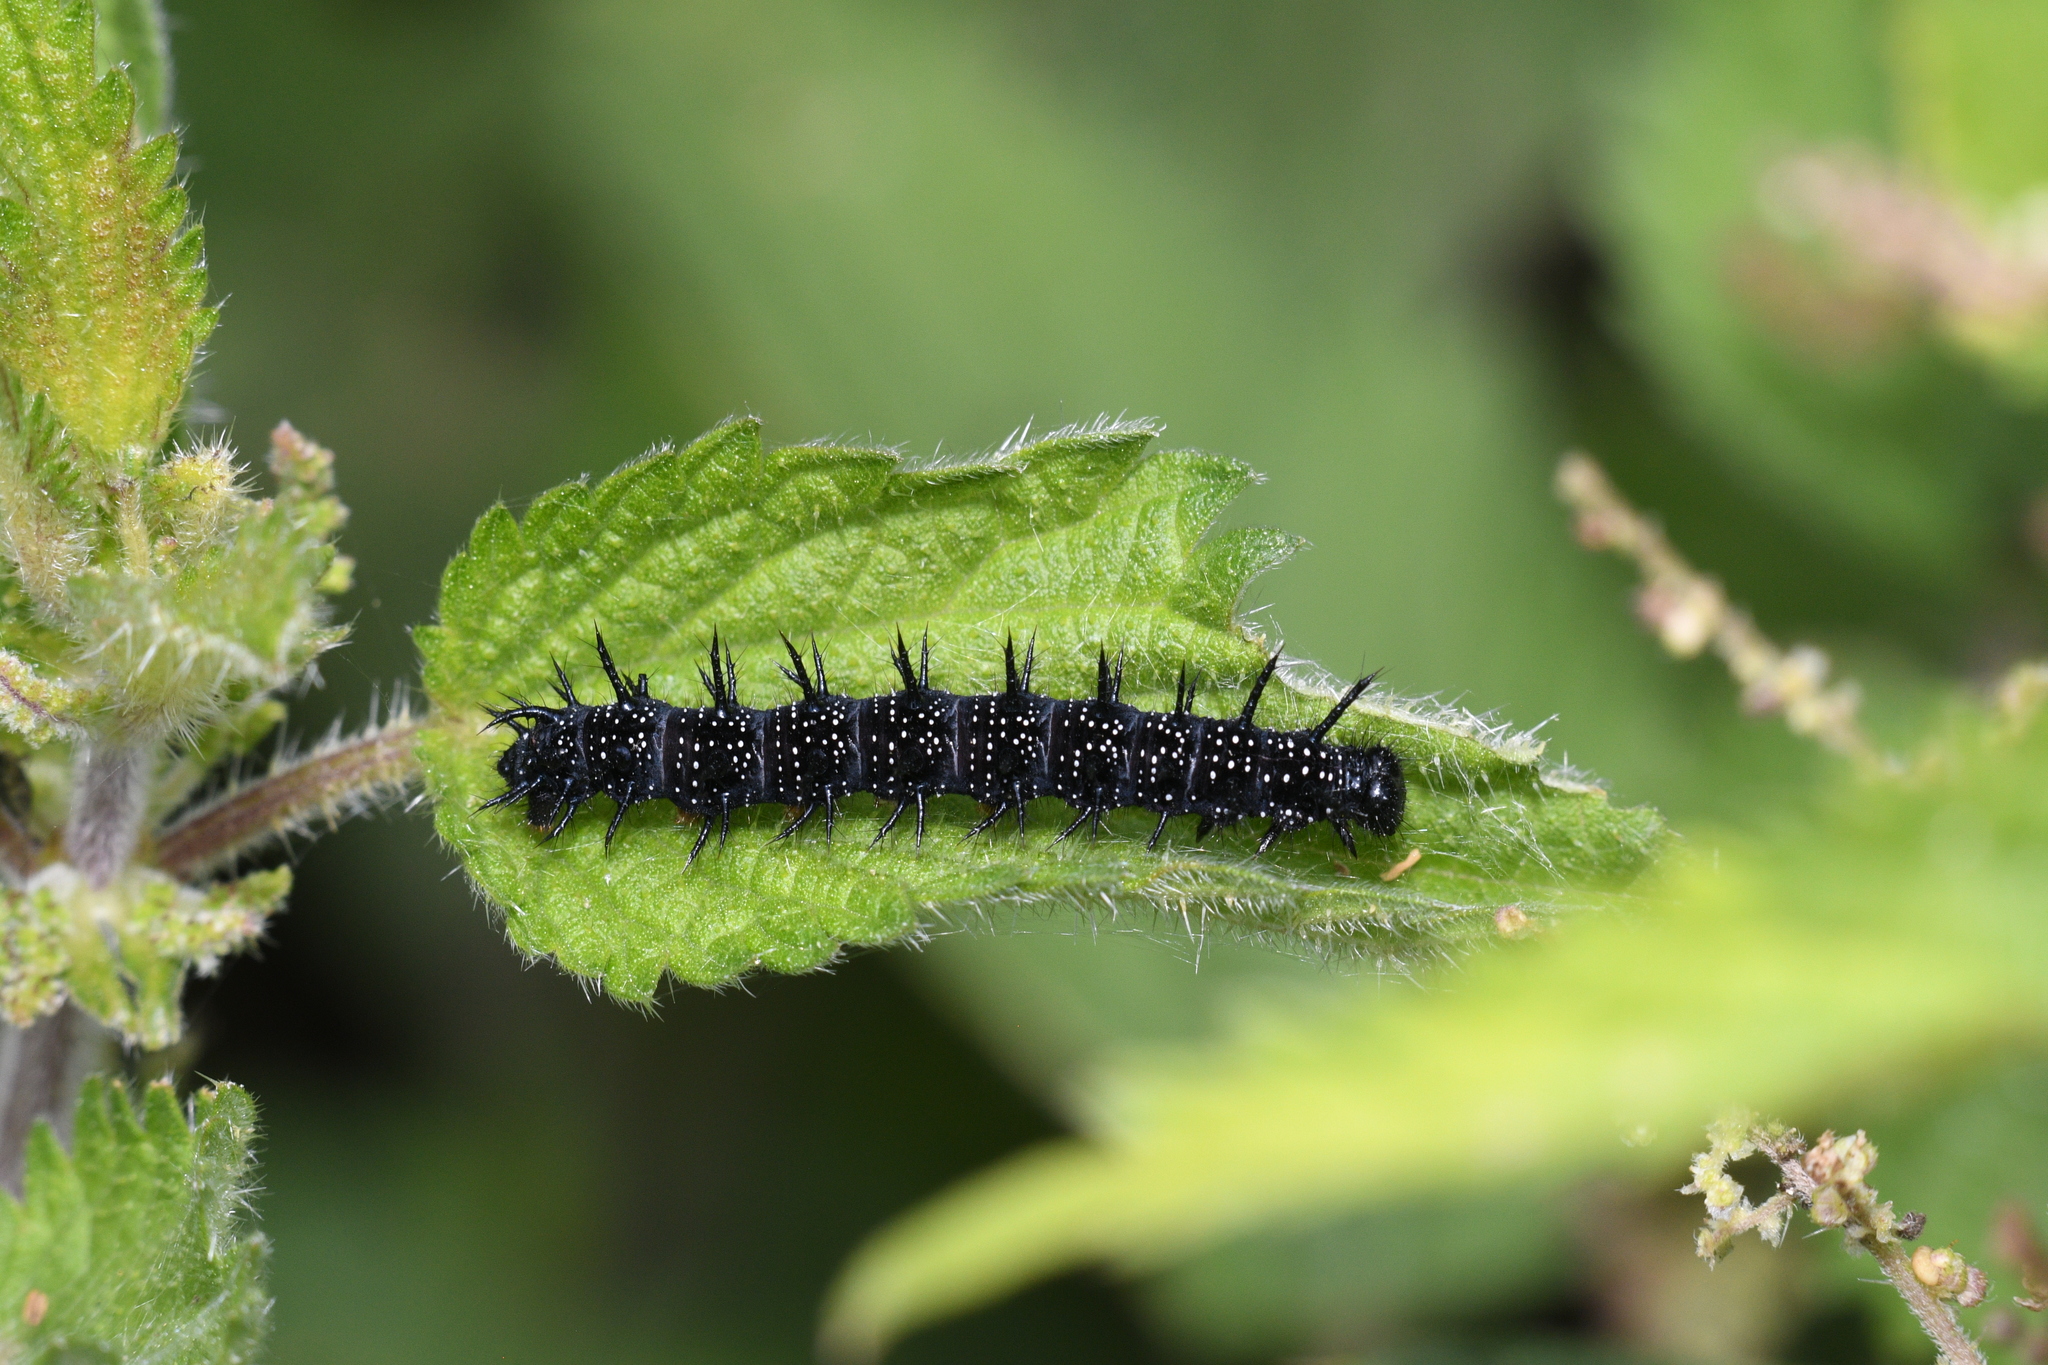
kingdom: Animalia
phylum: Arthropoda
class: Insecta
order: Lepidoptera
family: Nymphalidae
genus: Aglais
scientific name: Aglais io
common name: Peacock
